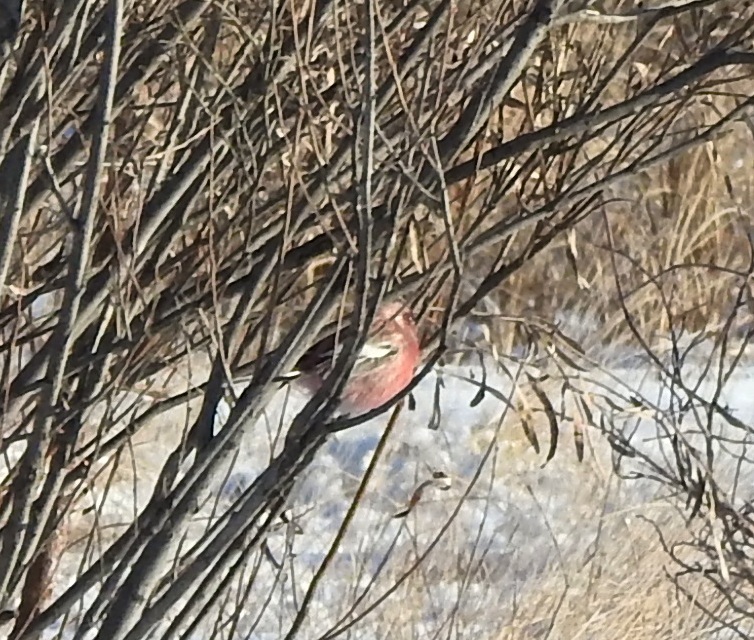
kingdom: Animalia
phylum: Chordata
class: Aves
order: Passeriformes
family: Fringillidae
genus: Carpodacus
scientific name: Carpodacus sibiricus
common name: Long-tailed rosefinch
